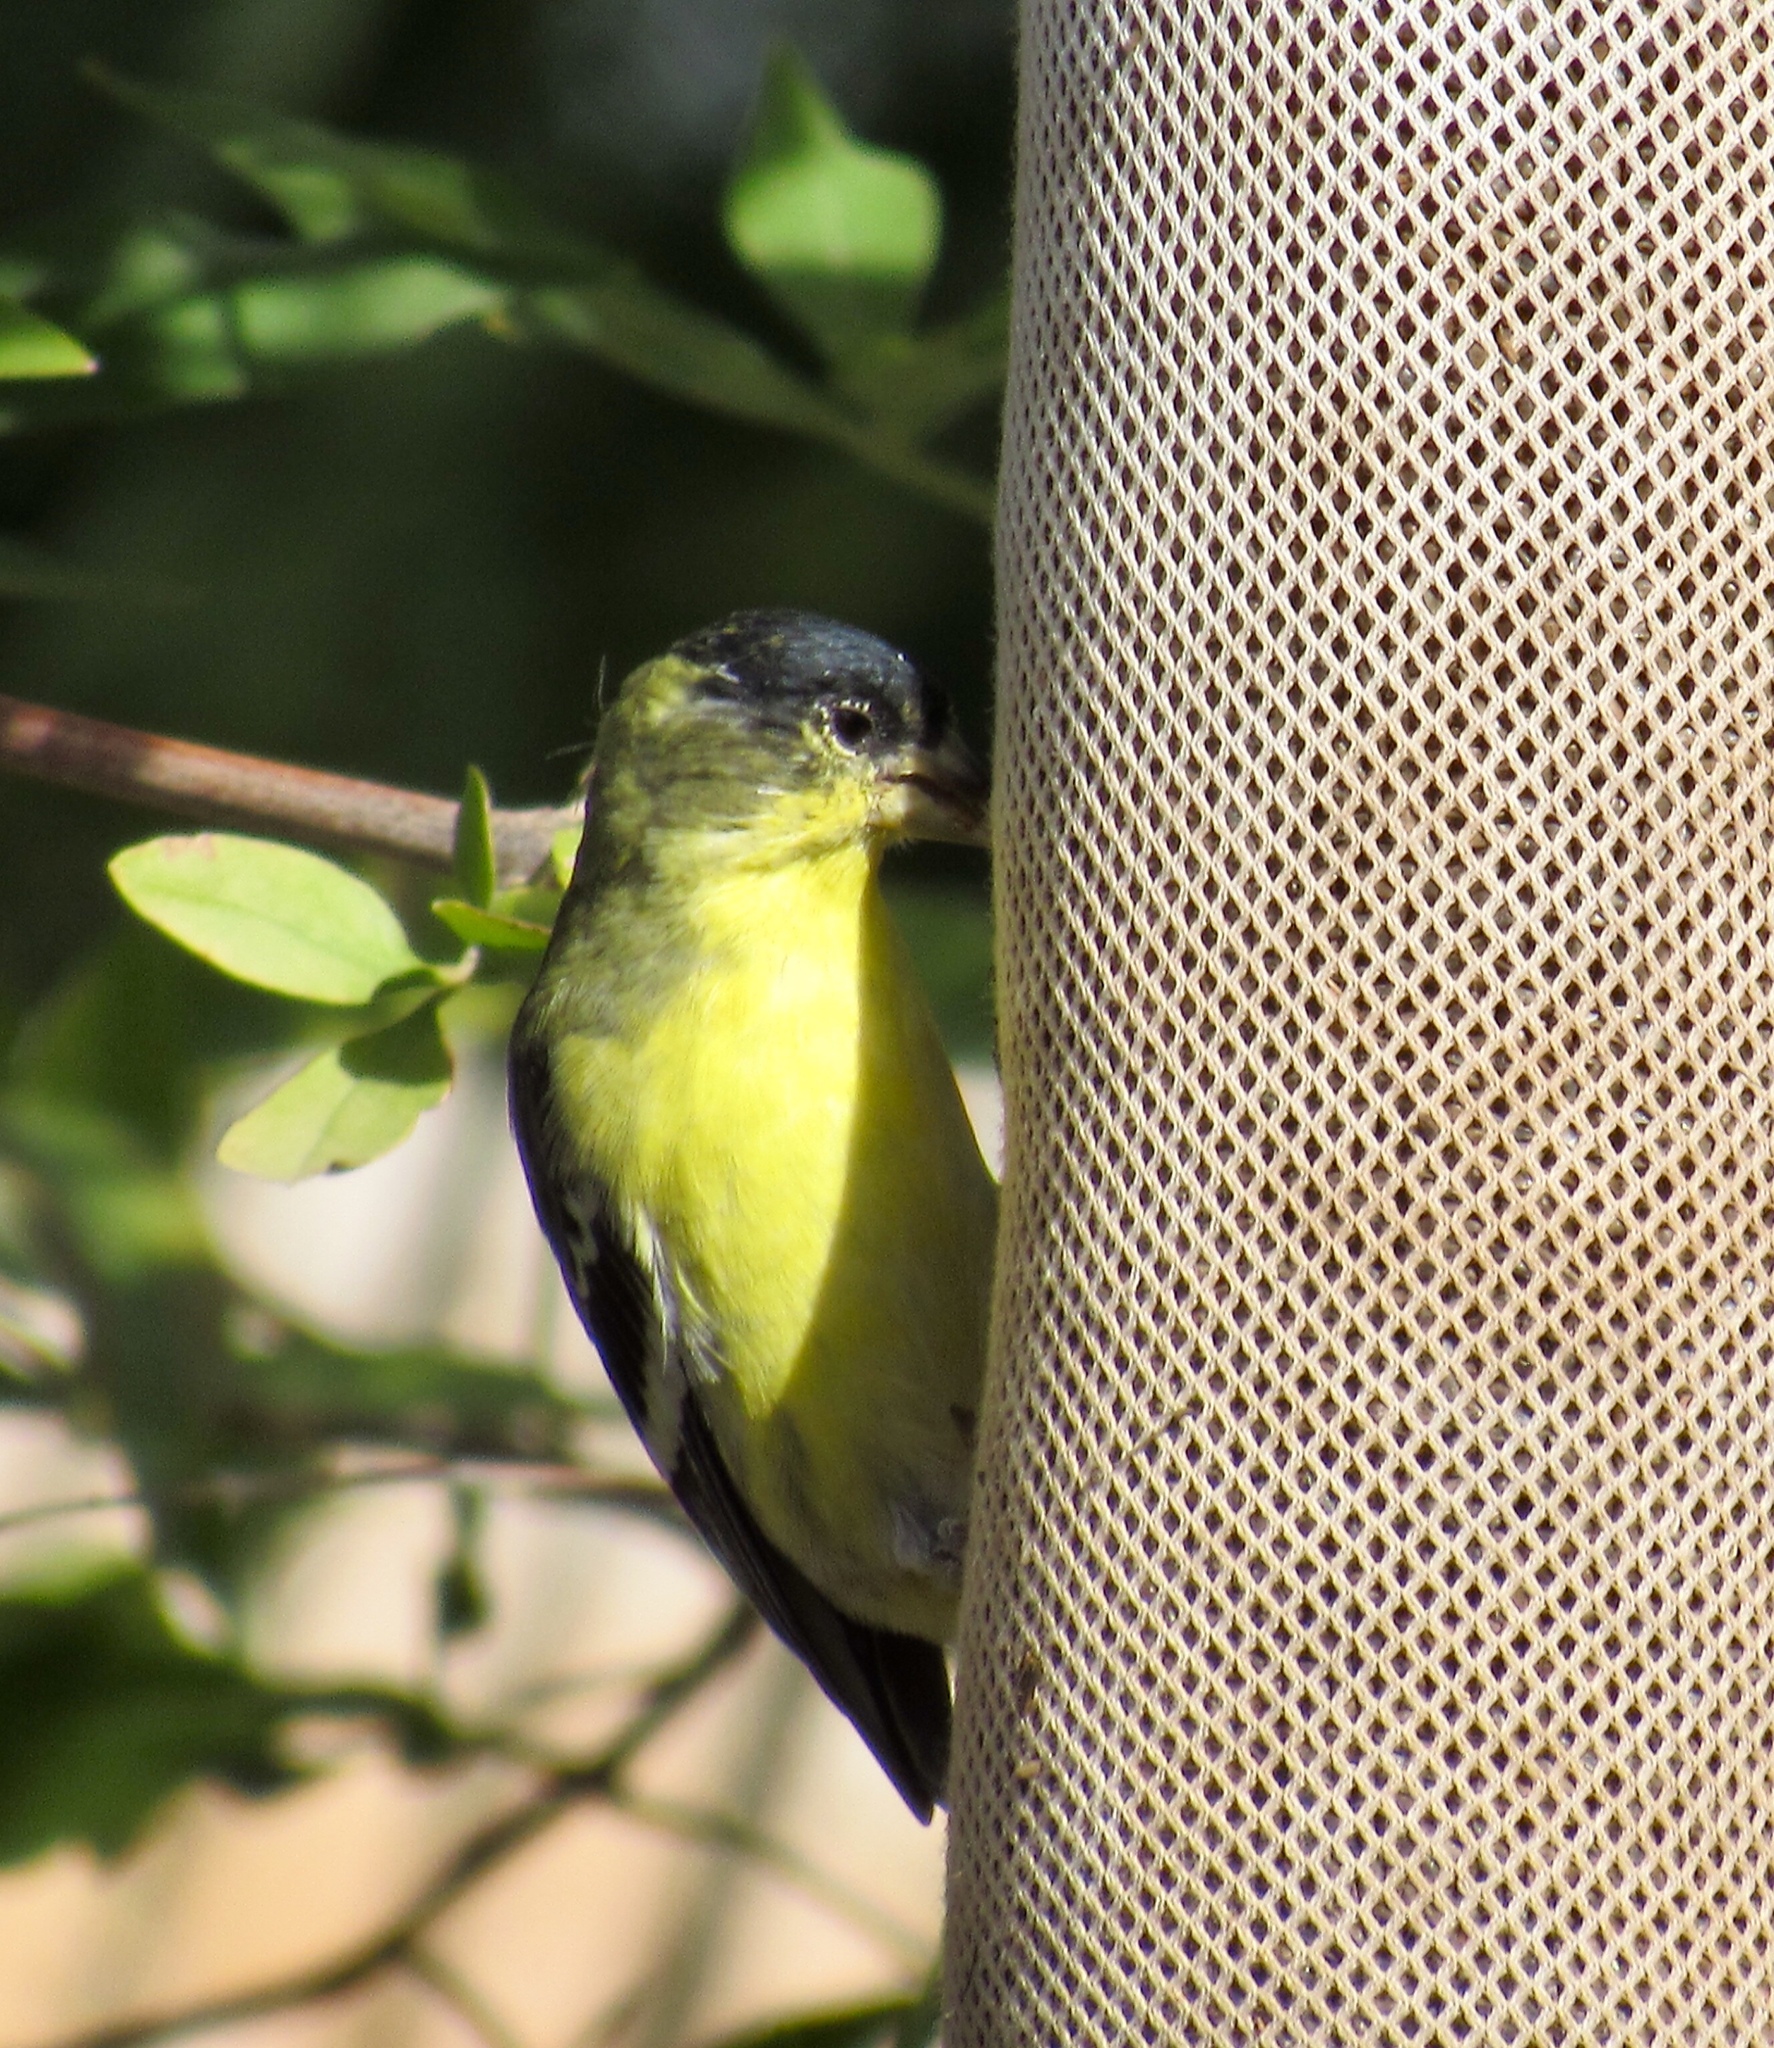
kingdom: Animalia
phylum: Chordata
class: Aves
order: Passeriformes
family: Fringillidae
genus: Spinus
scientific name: Spinus psaltria
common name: Lesser goldfinch
